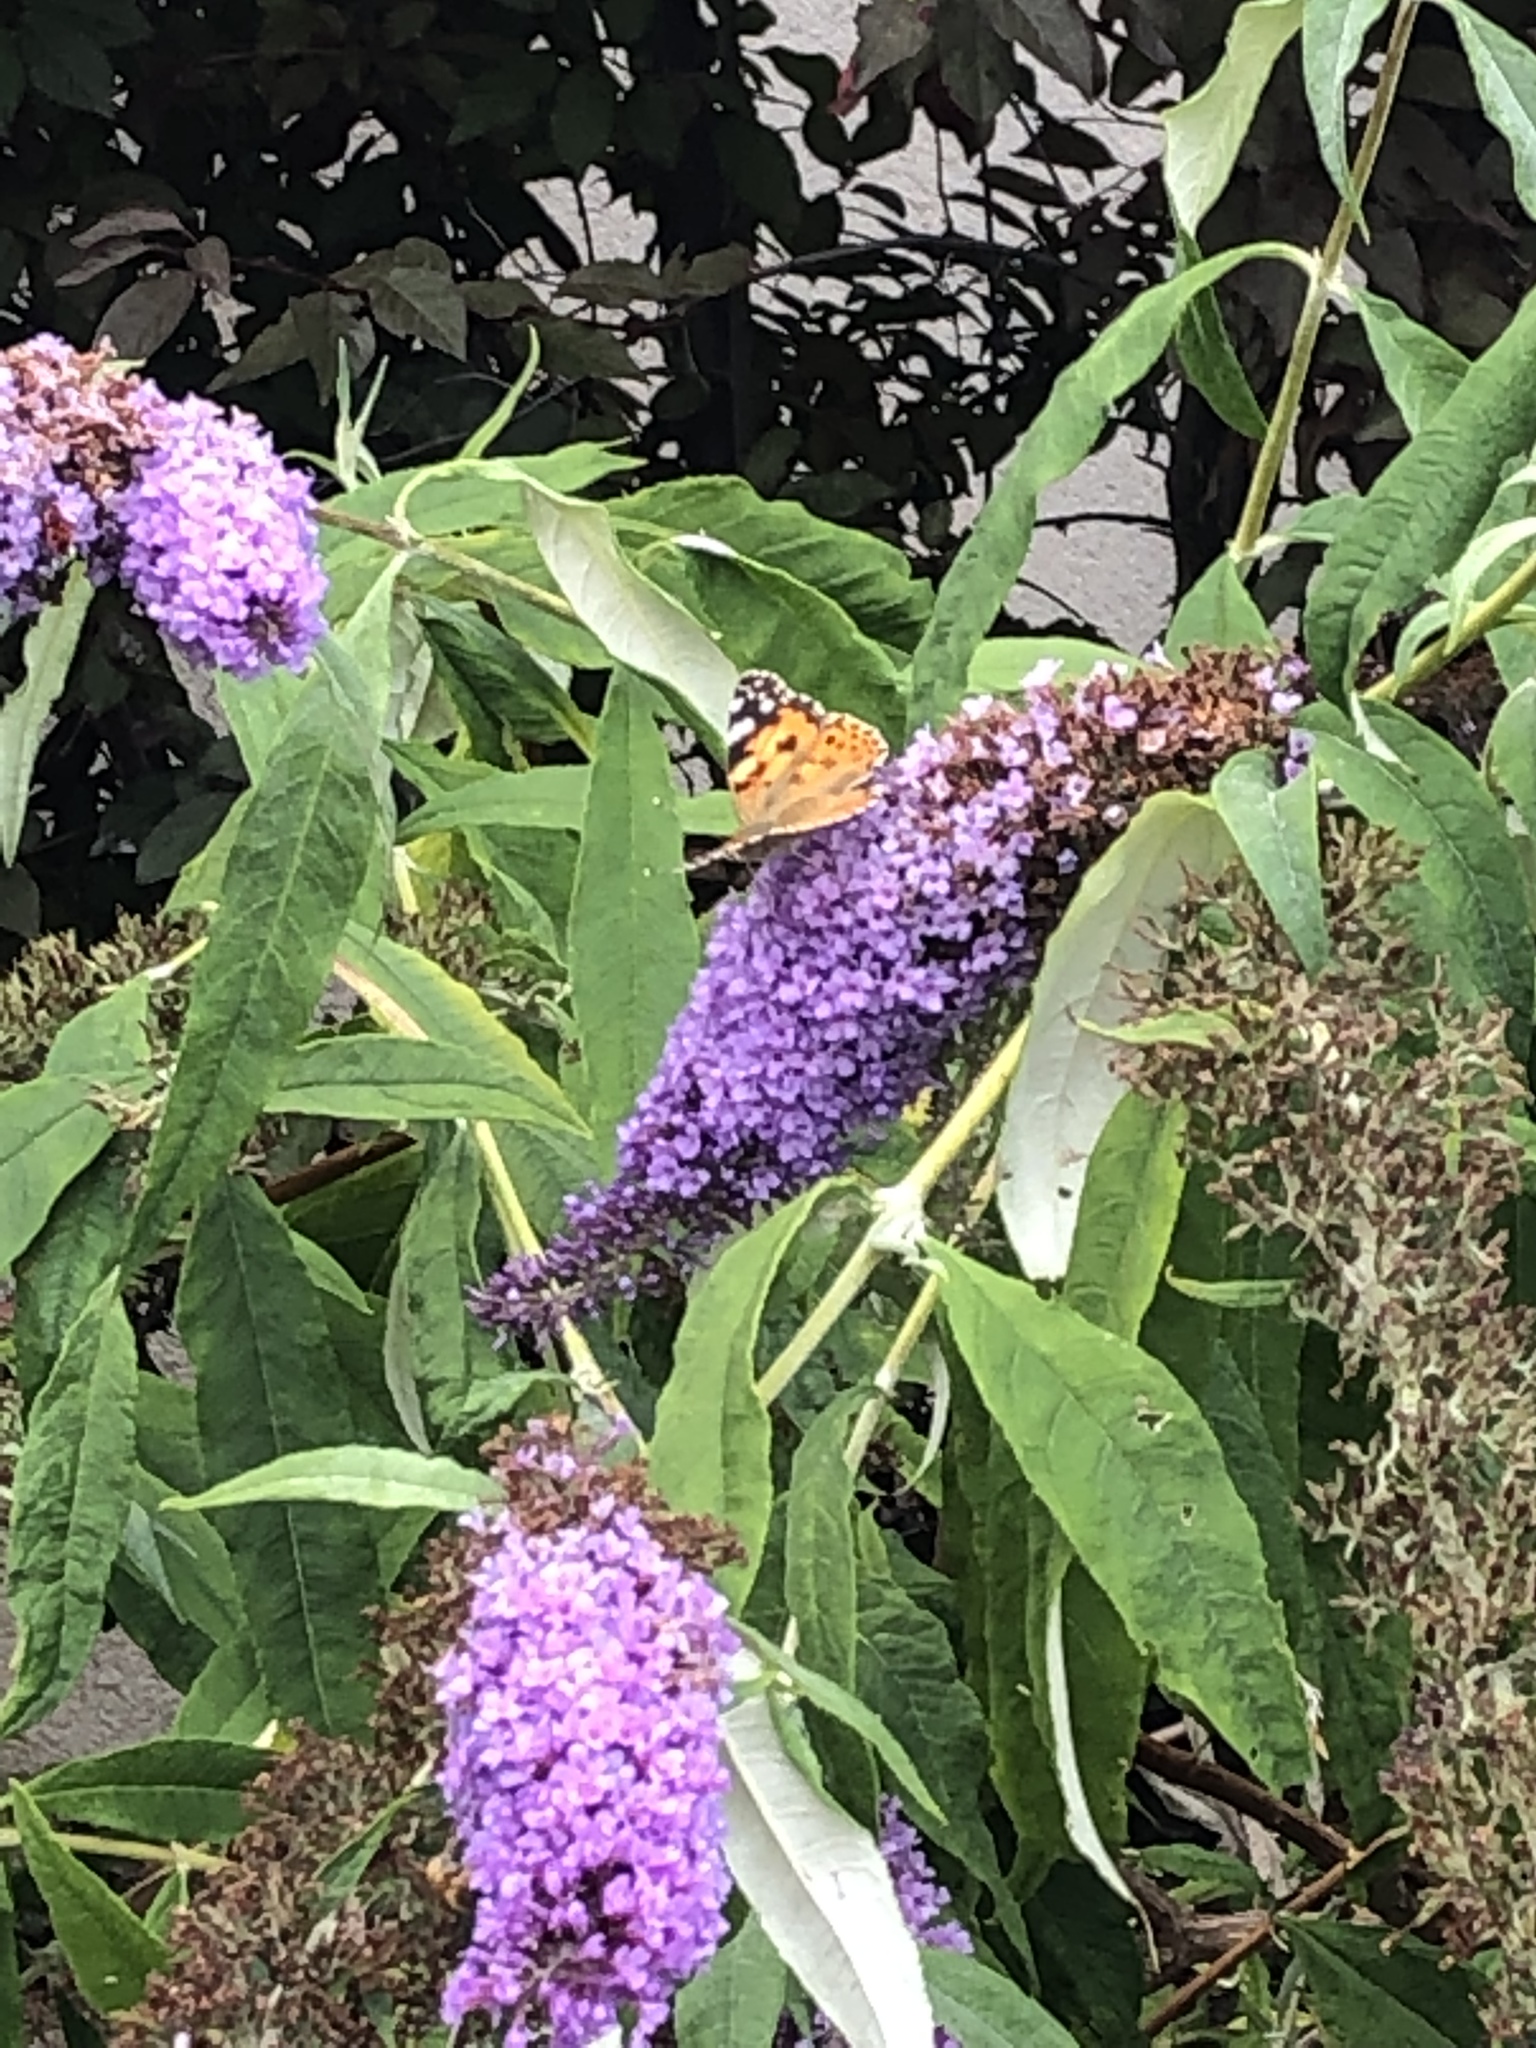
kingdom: Animalia
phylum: Arthropoda
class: Insecta
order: Lepidoptera
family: Nymphalidae
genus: Vanessa
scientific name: Vanessa cardui
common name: Painted lady
